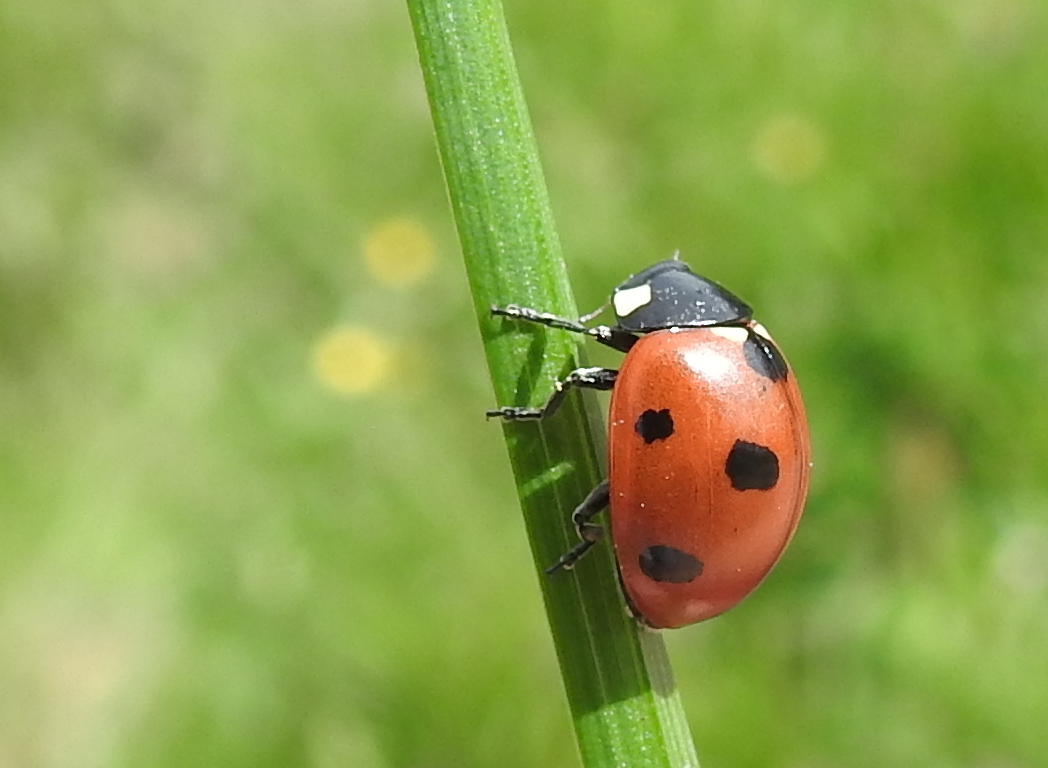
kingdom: Animalia
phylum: Arthropoda
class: Insecta
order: Coleoptera
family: Coccinellidae
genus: Coccinella
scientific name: Coccinella septempunctata
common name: Sevenspotted lady beetle
